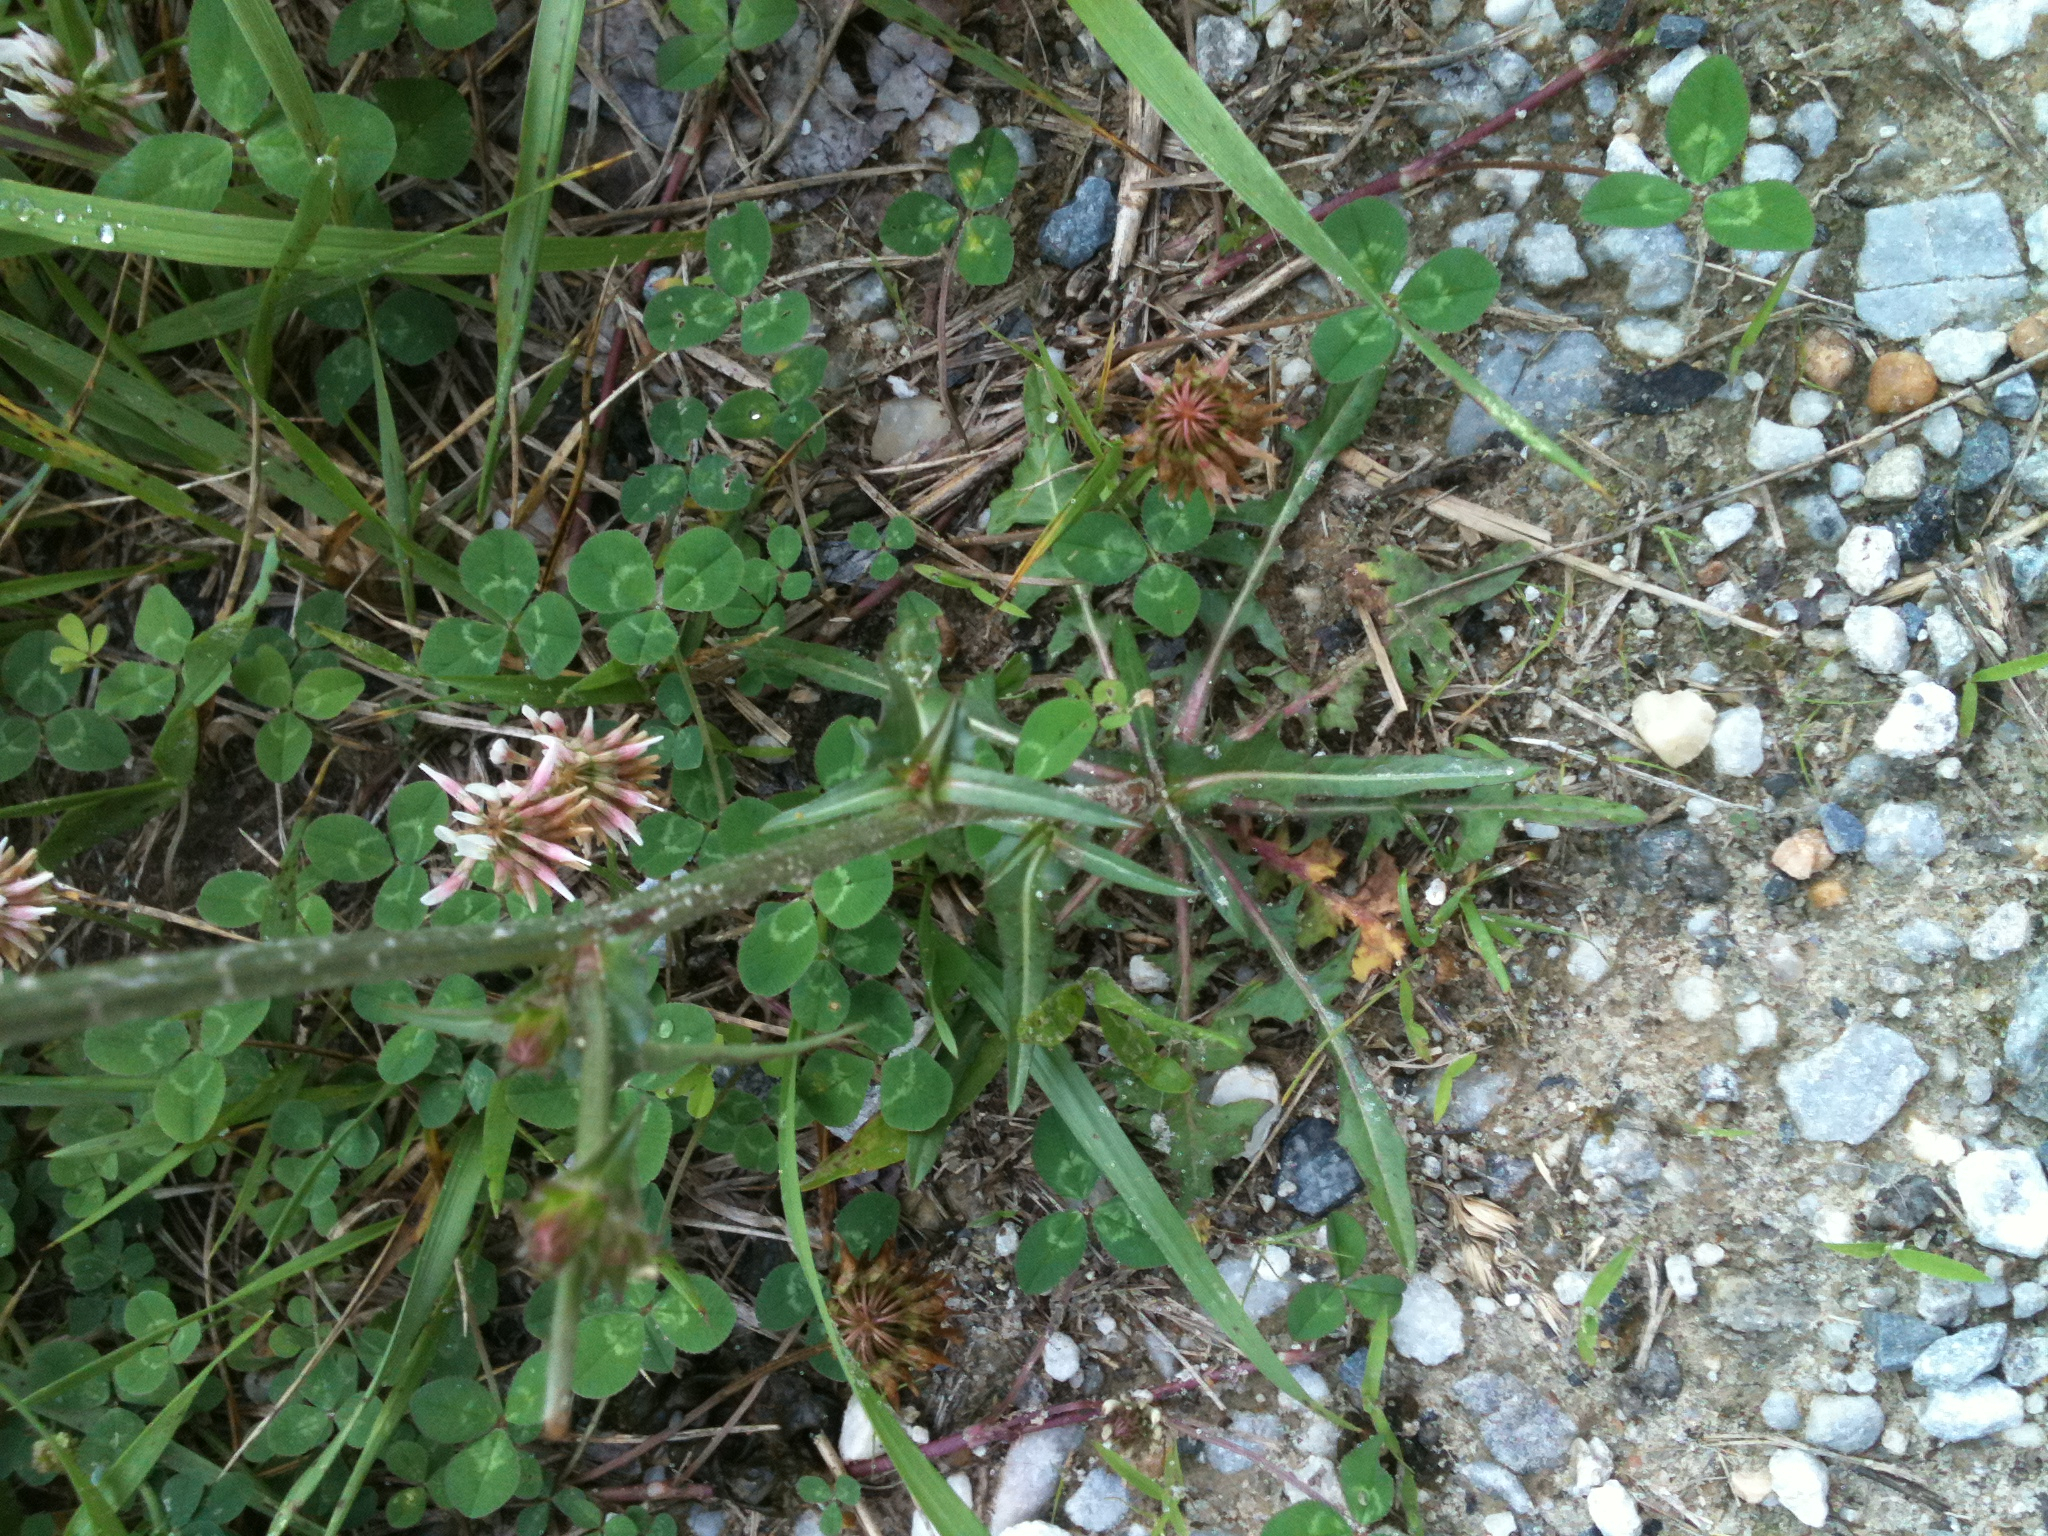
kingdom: Plantae
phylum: Tracheophyta
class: Magnoliopsida
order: Asterales
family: Asteraceae
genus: Cichorium
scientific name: Cichorium intybus
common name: Chicory
